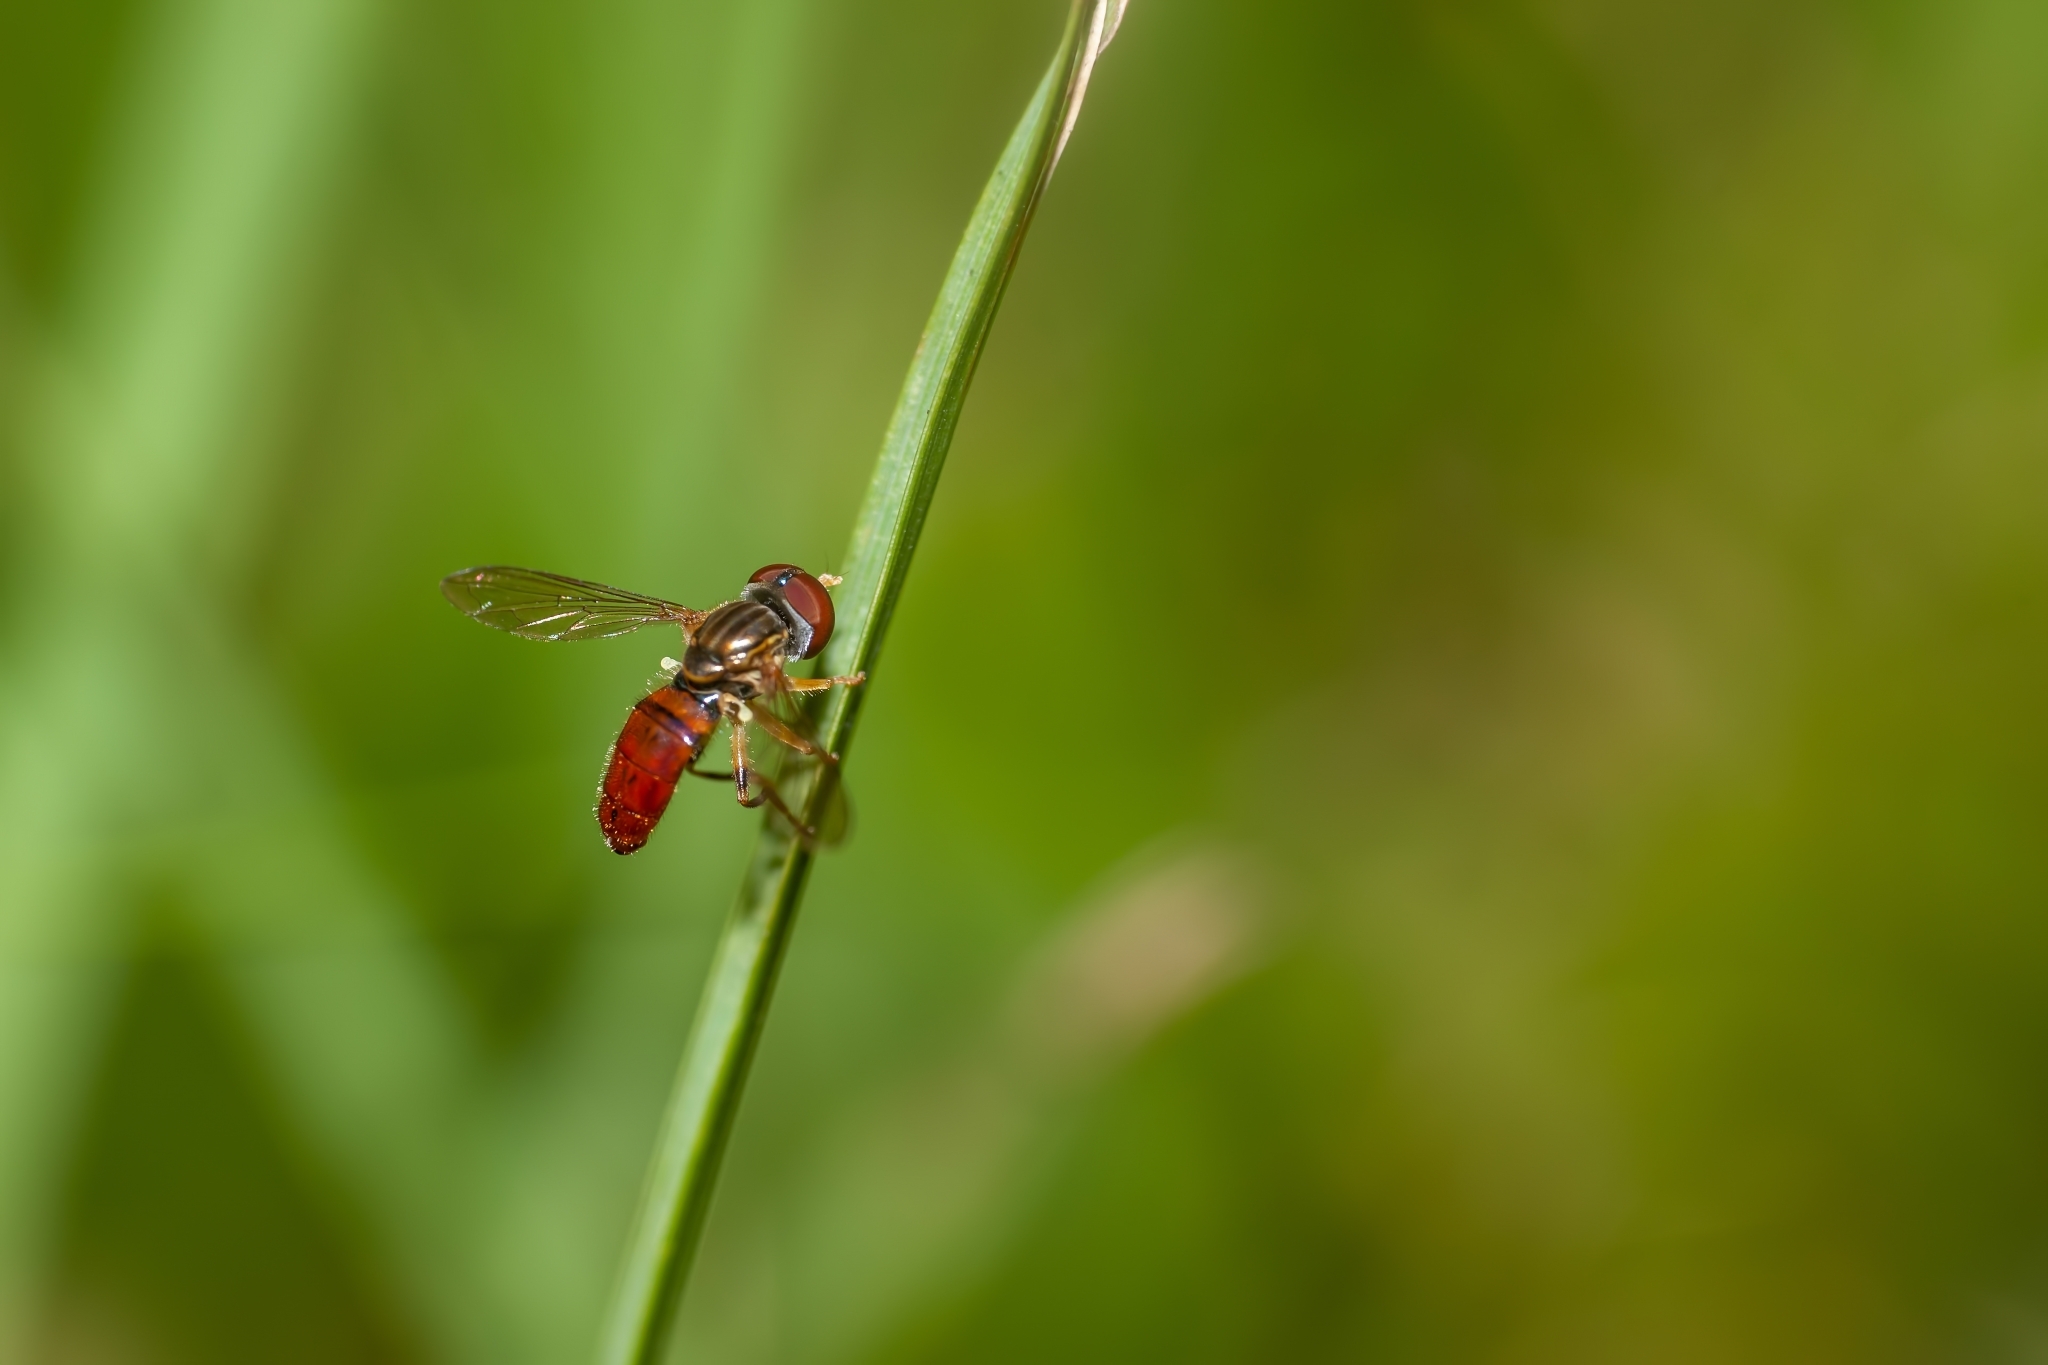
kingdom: Animalia
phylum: Arthropoda
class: Insecta
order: Diptera
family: Syrphidae
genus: Toxomerus
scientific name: Toxomerus boscii
